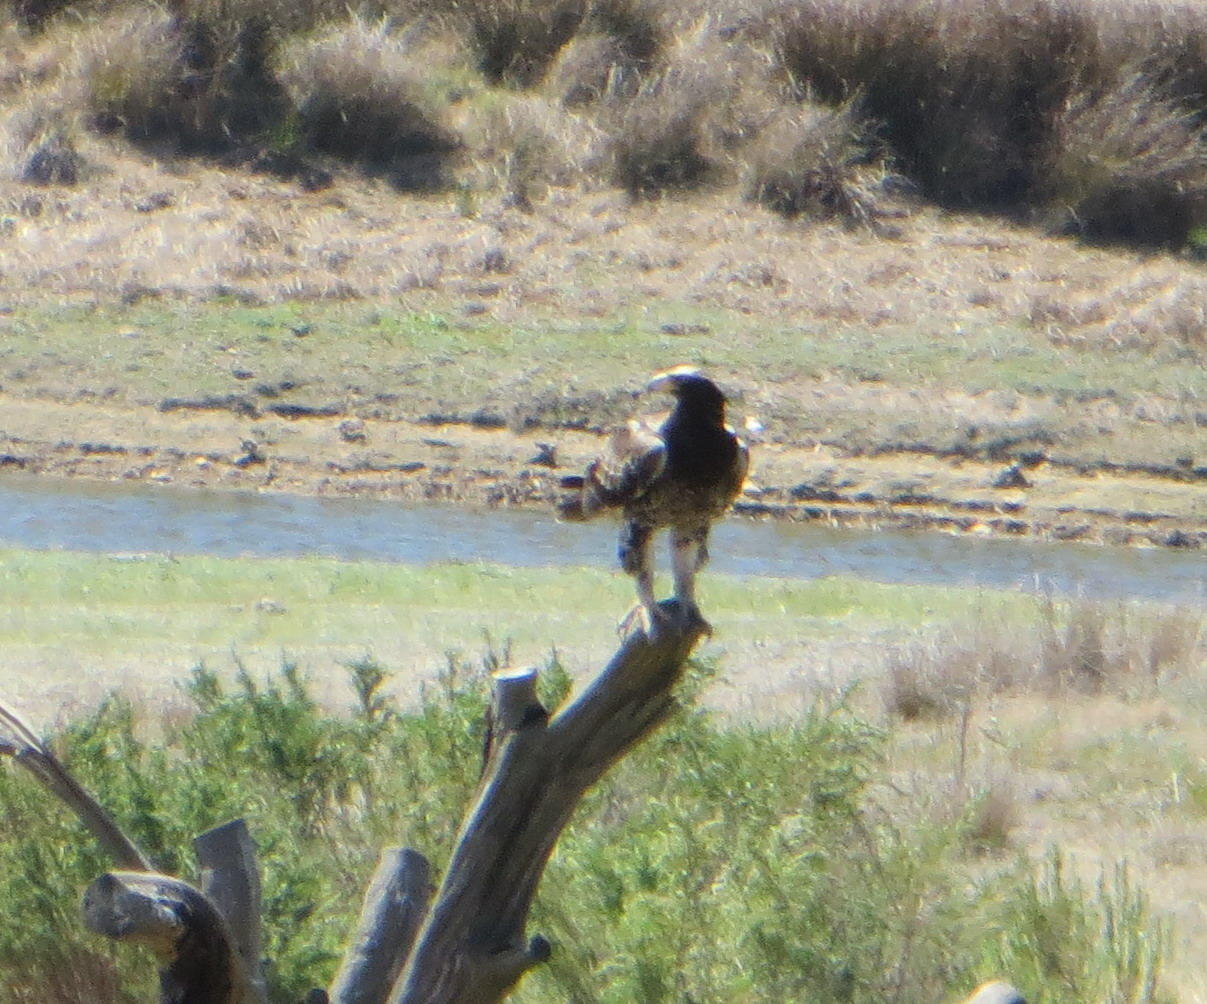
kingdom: Animalia
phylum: Chordata
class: Aves
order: Accipitriformes
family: Accipitridae
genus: Aquila
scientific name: Aquila verreauxii
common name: Verreaux's eagle
